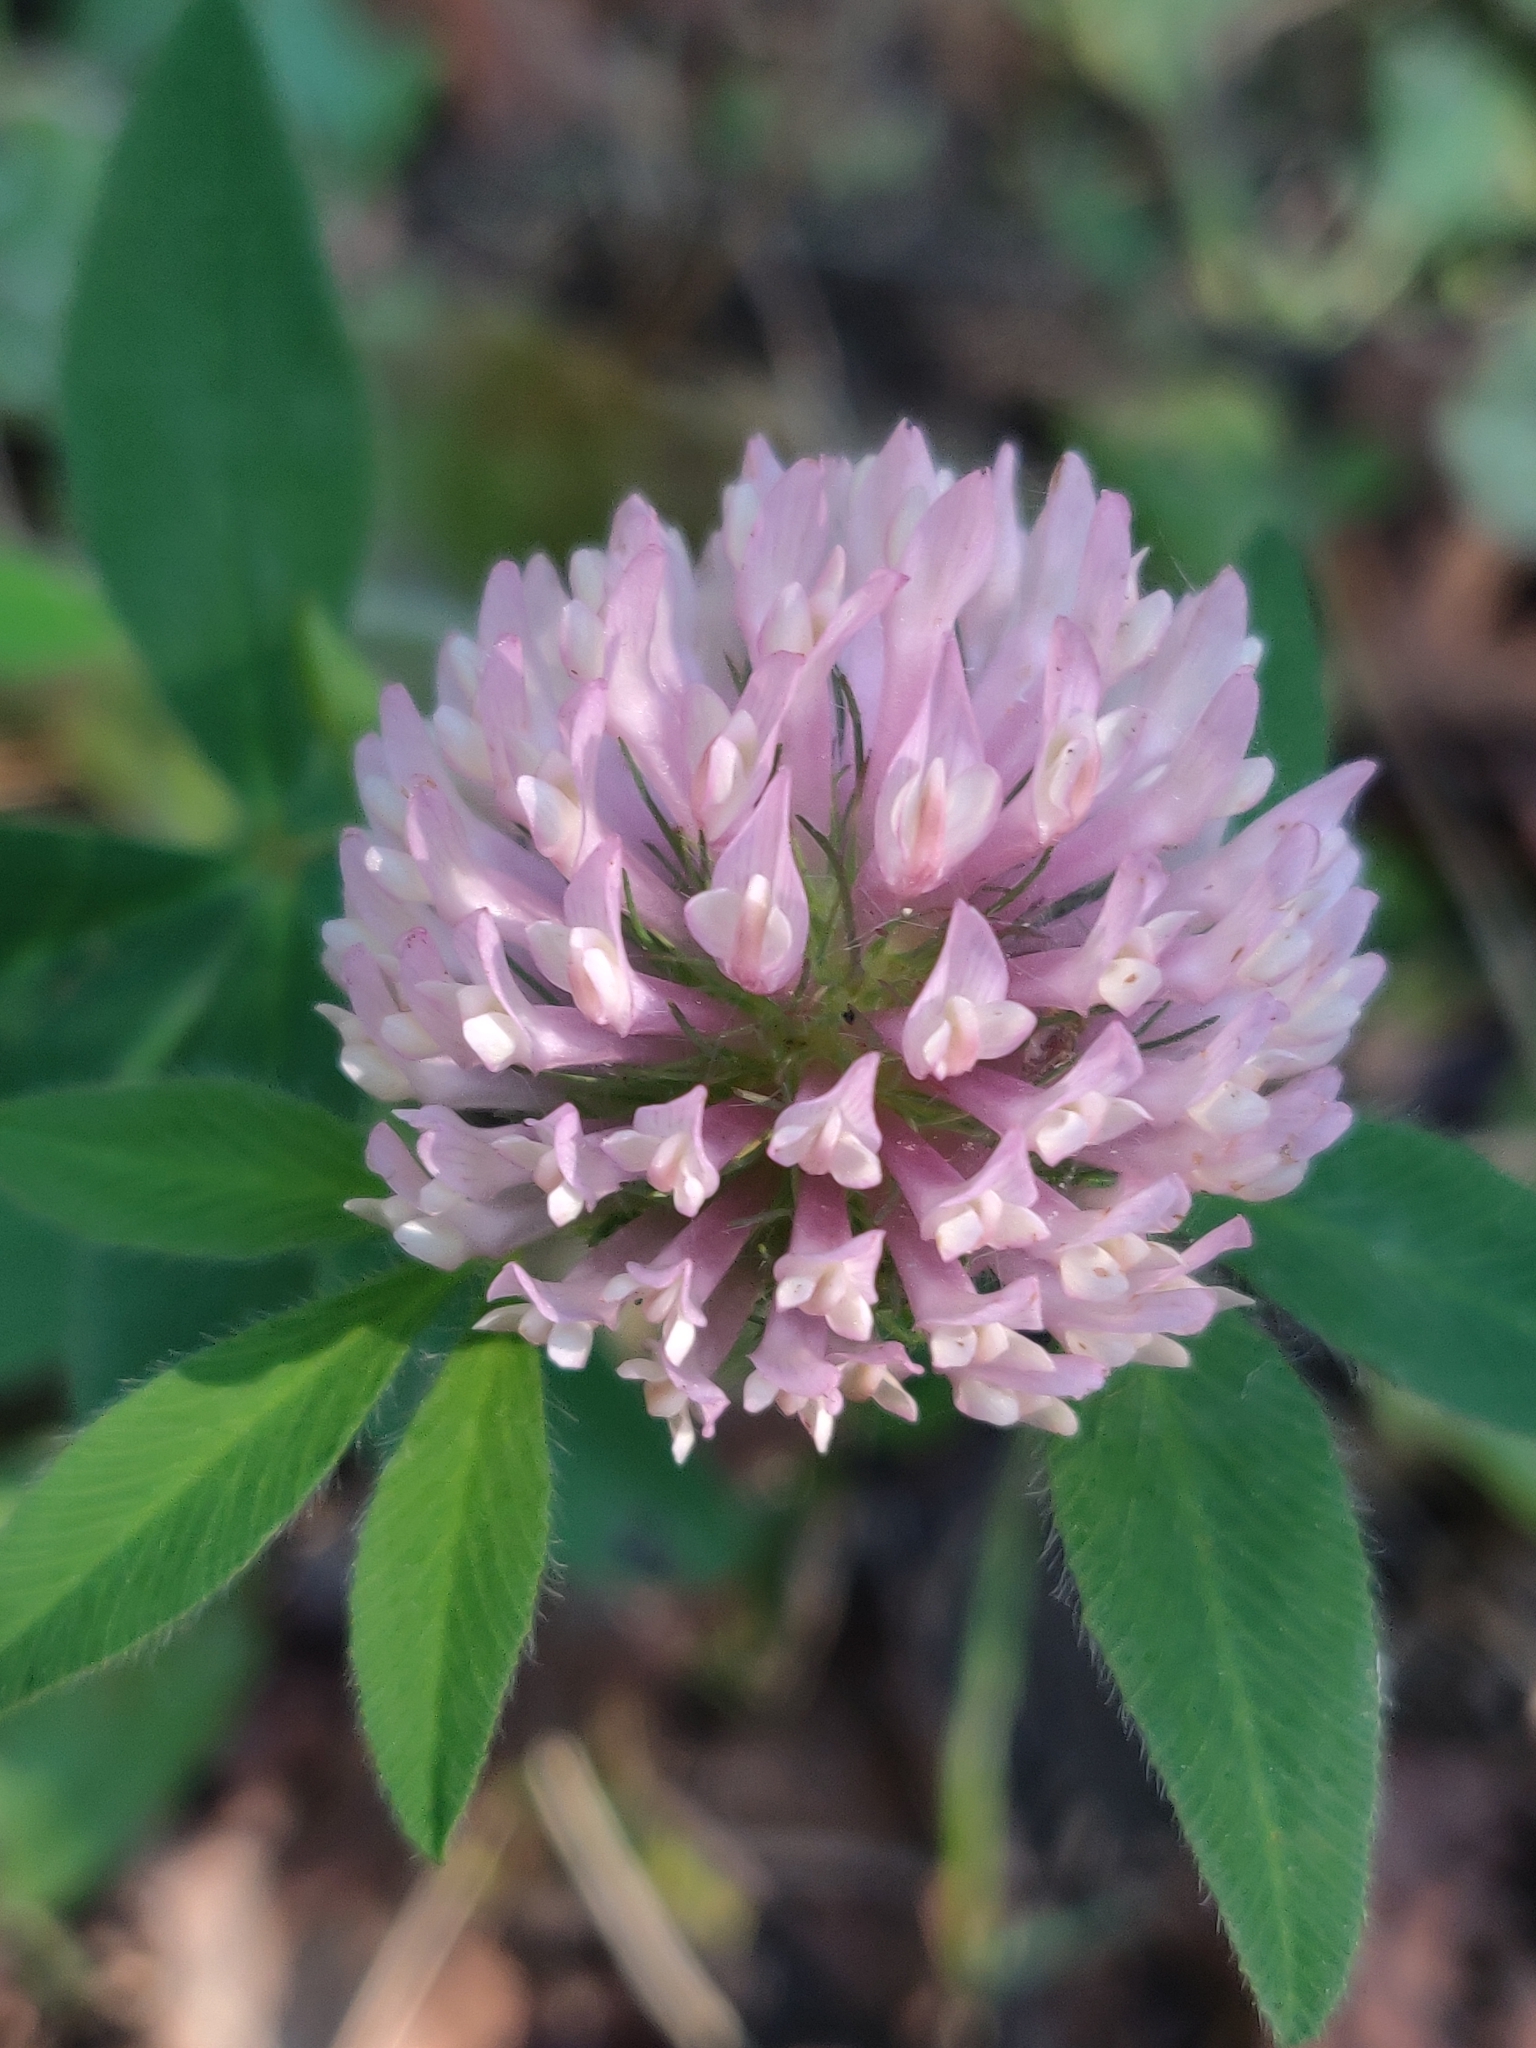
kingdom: Plantae
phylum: Tracheophyta
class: Magnoliopsida
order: Fabales
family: Fabaceae
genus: Trifolium
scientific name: Trifolium pratense
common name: Red clover
